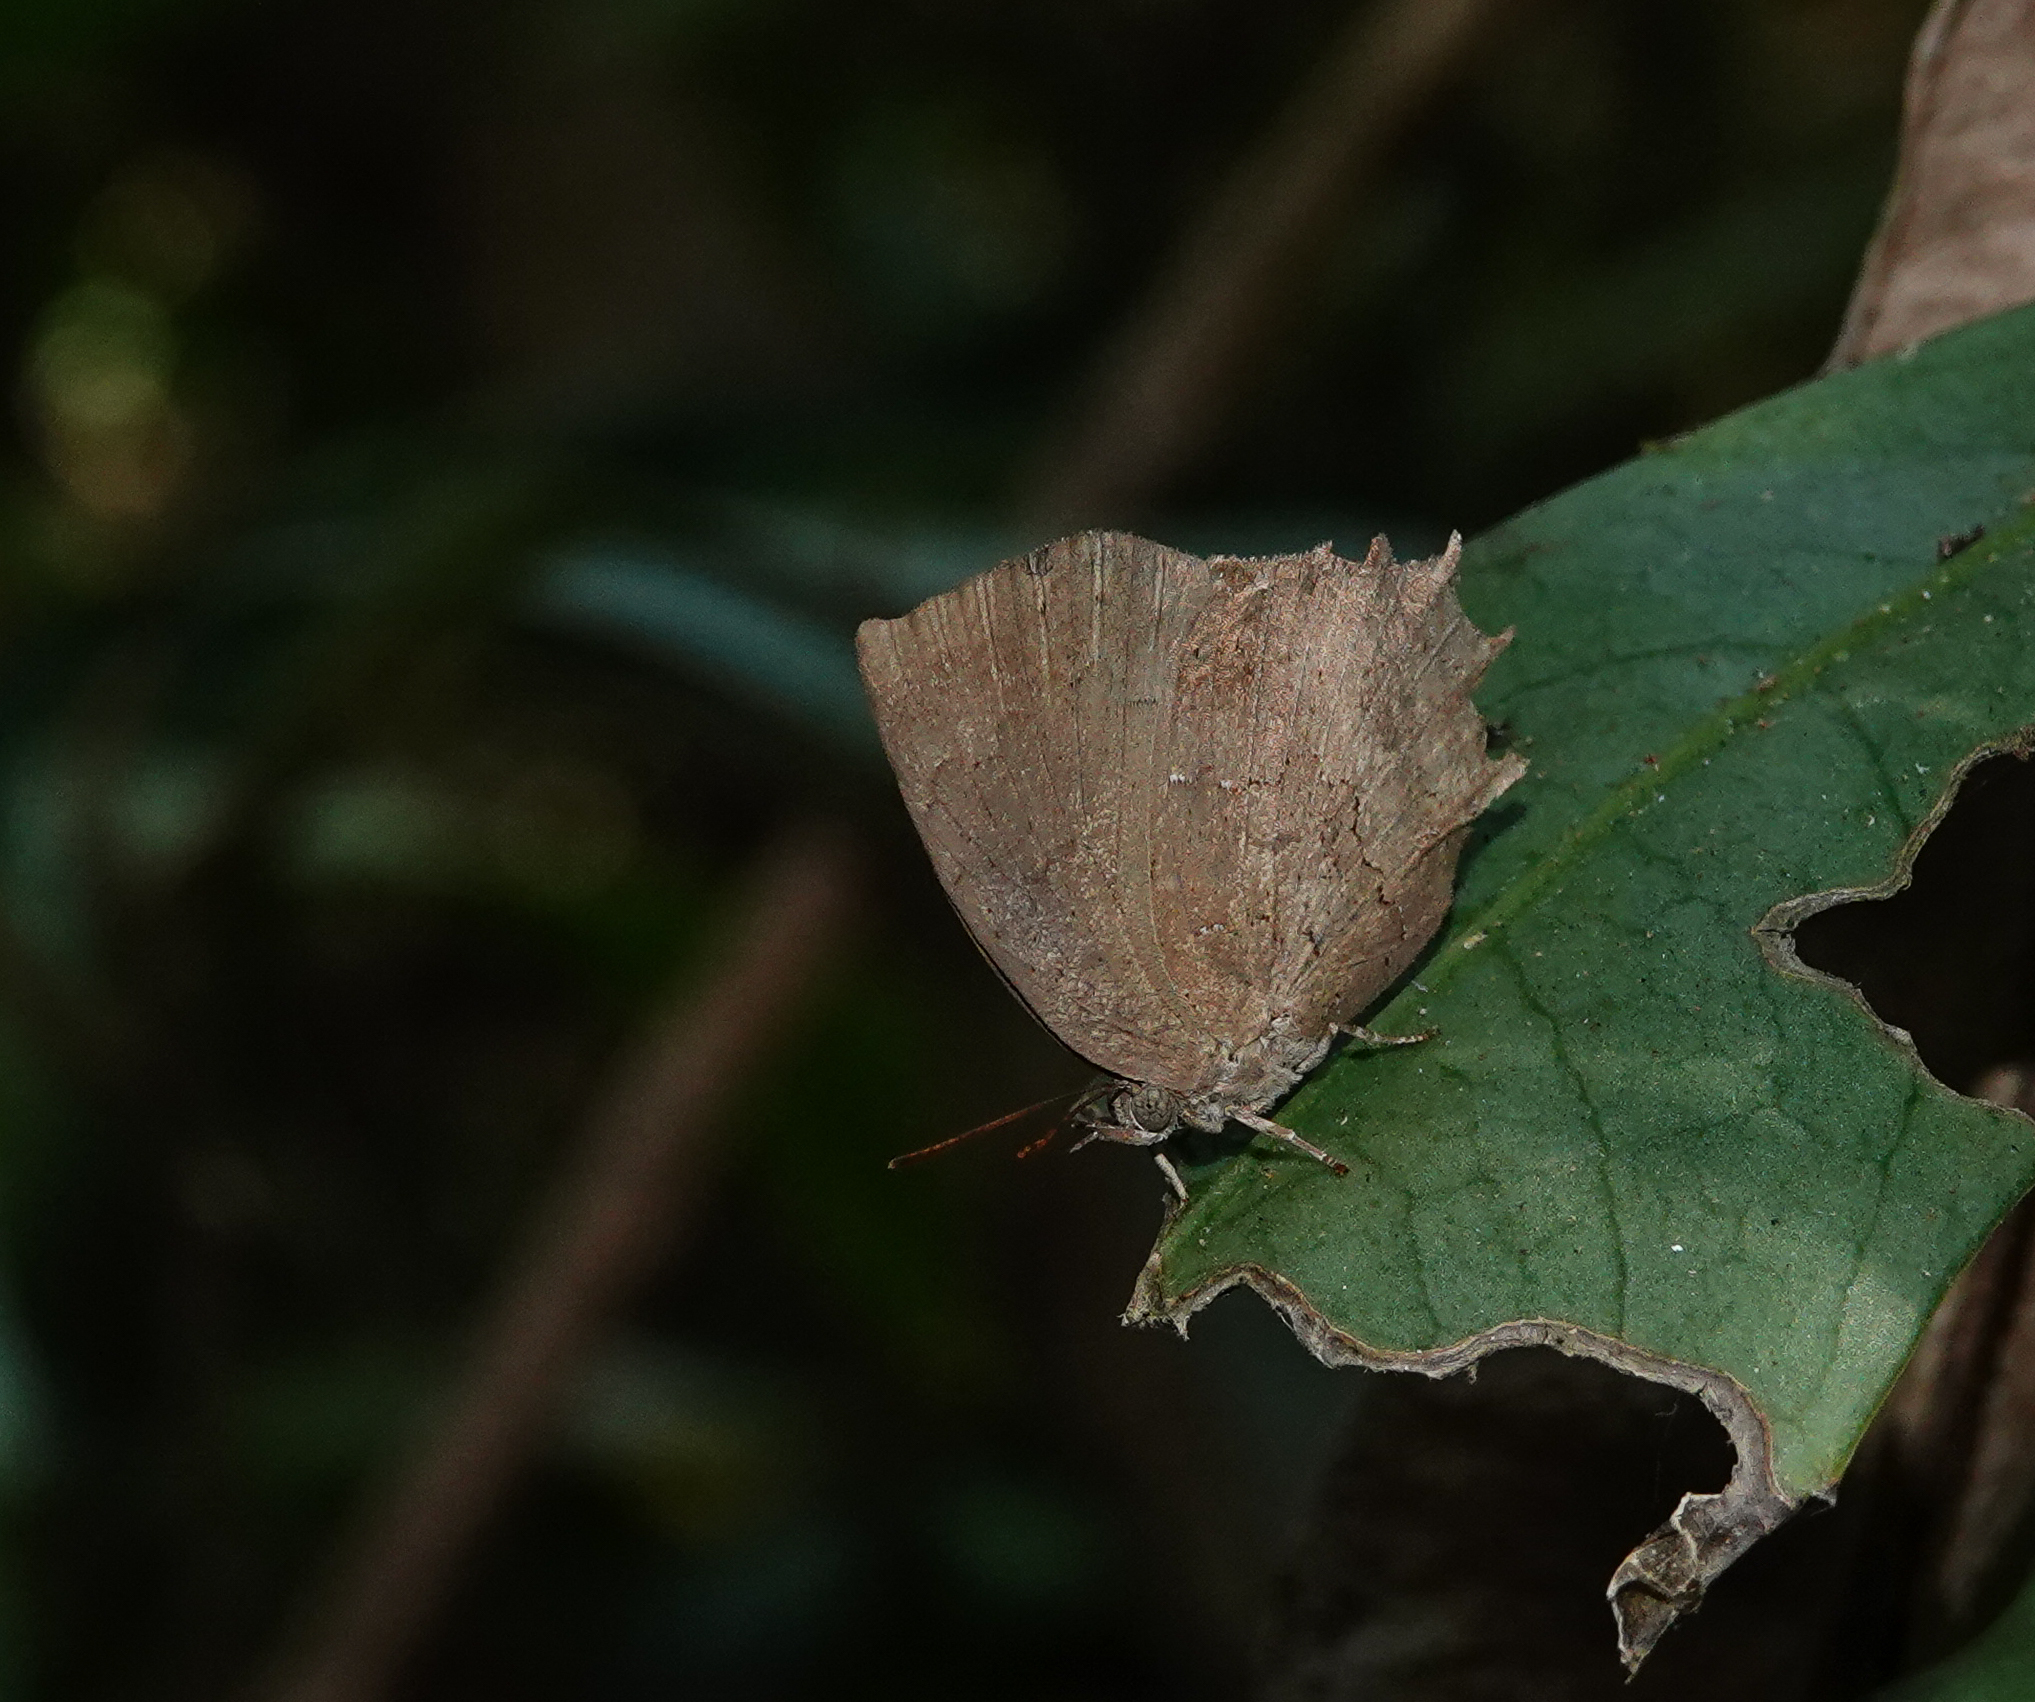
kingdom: Animalia
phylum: Arthropoda
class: Insecta
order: Lepidoptera
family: Lycaenidae
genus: Surendra
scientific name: Surendra quercetorum
